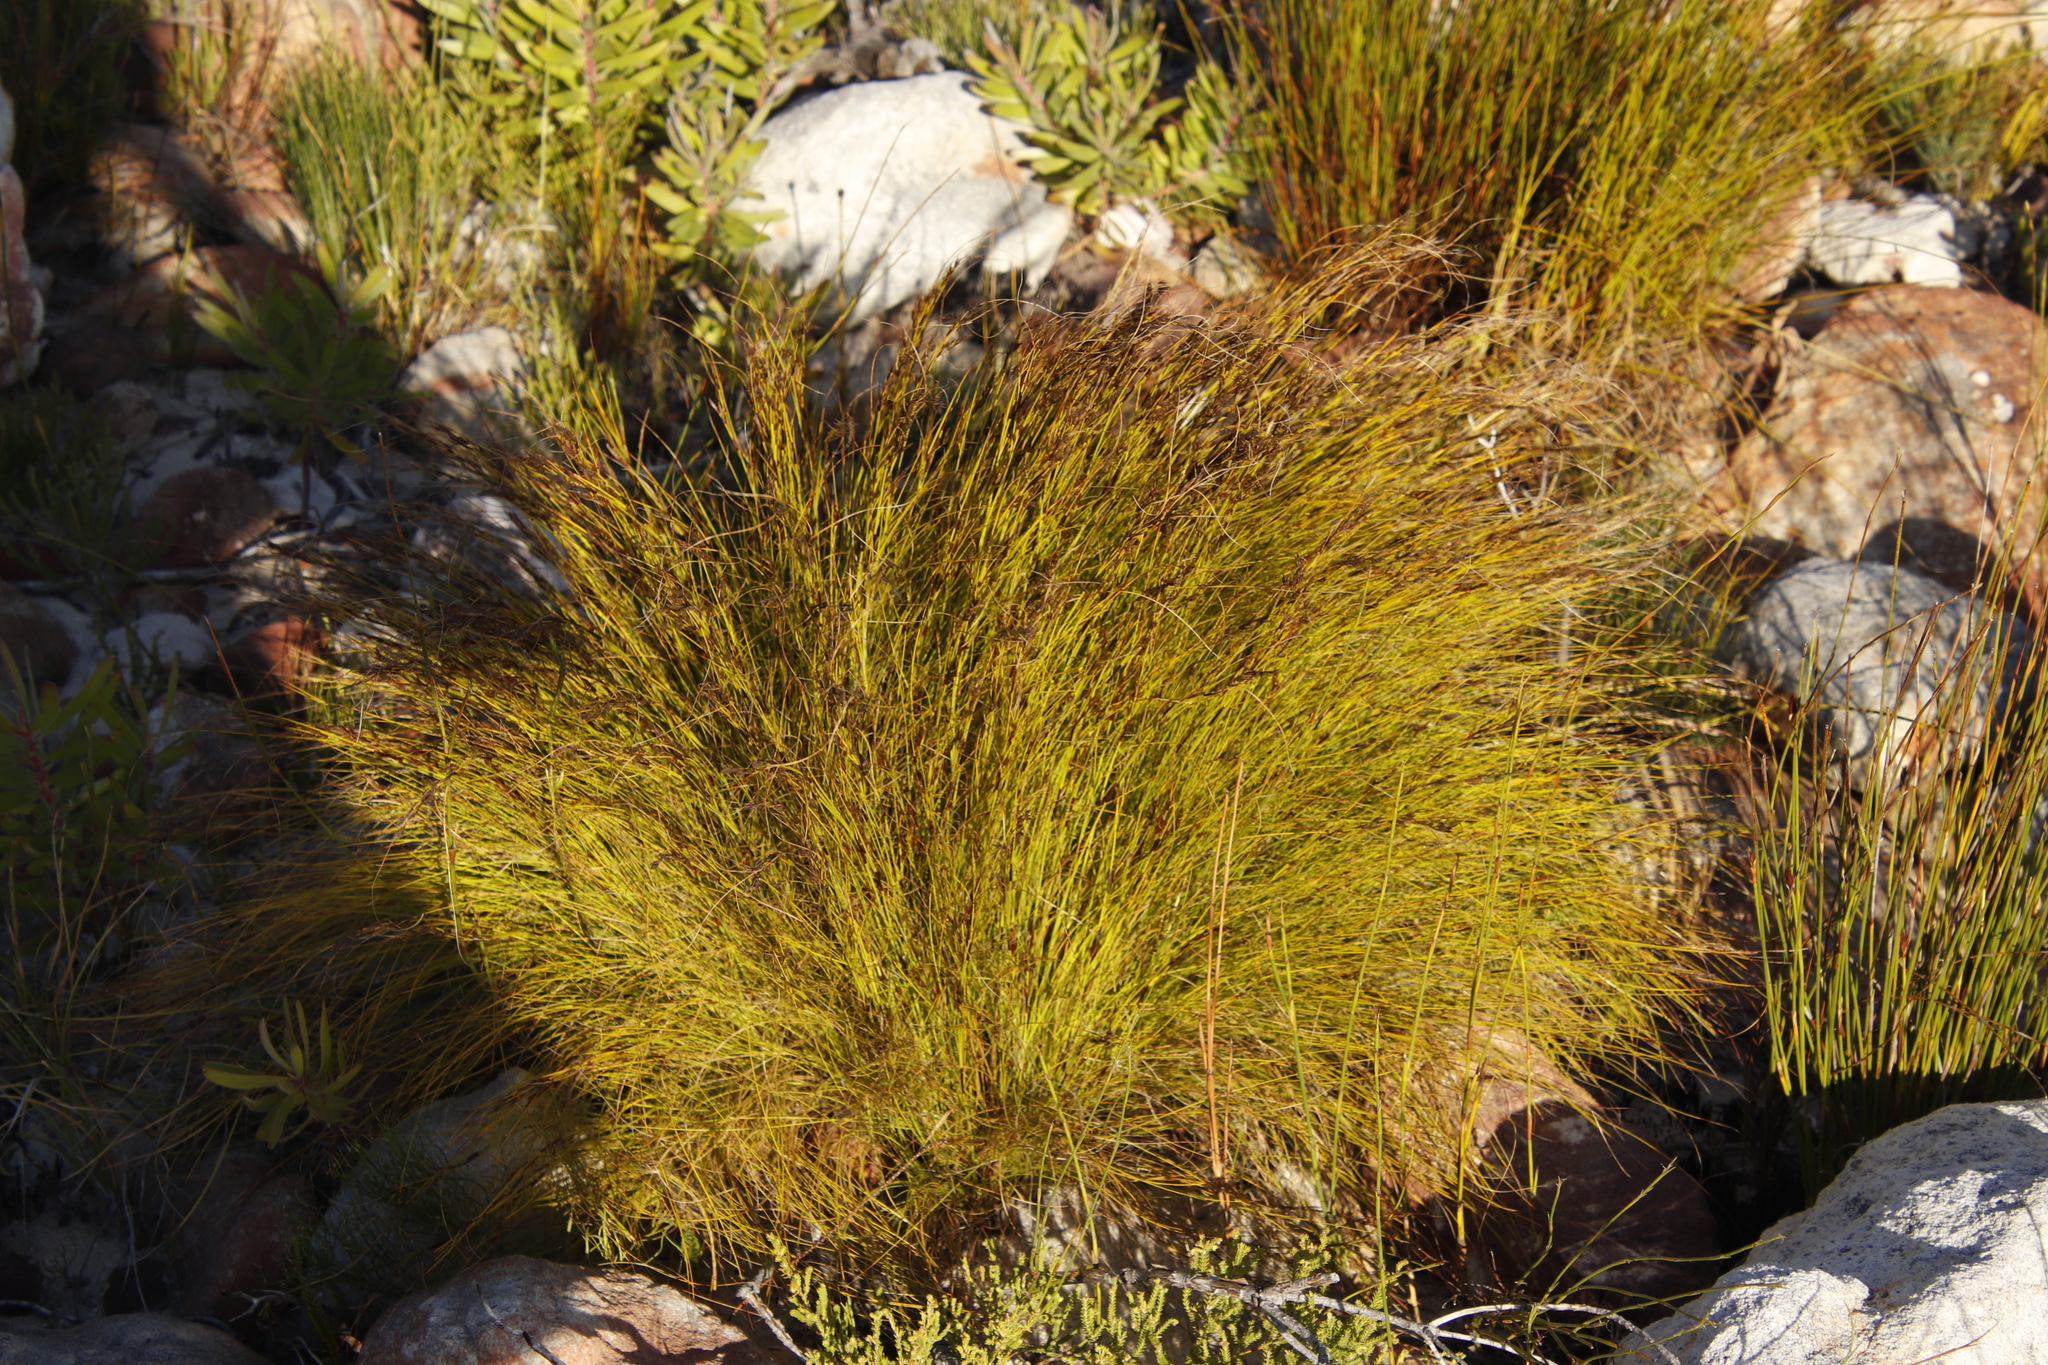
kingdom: Plantae
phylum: Tracheophyta
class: Liliopsida
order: Poales
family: Cyperaceae
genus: Tetraria
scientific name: Tetraria ustulata
